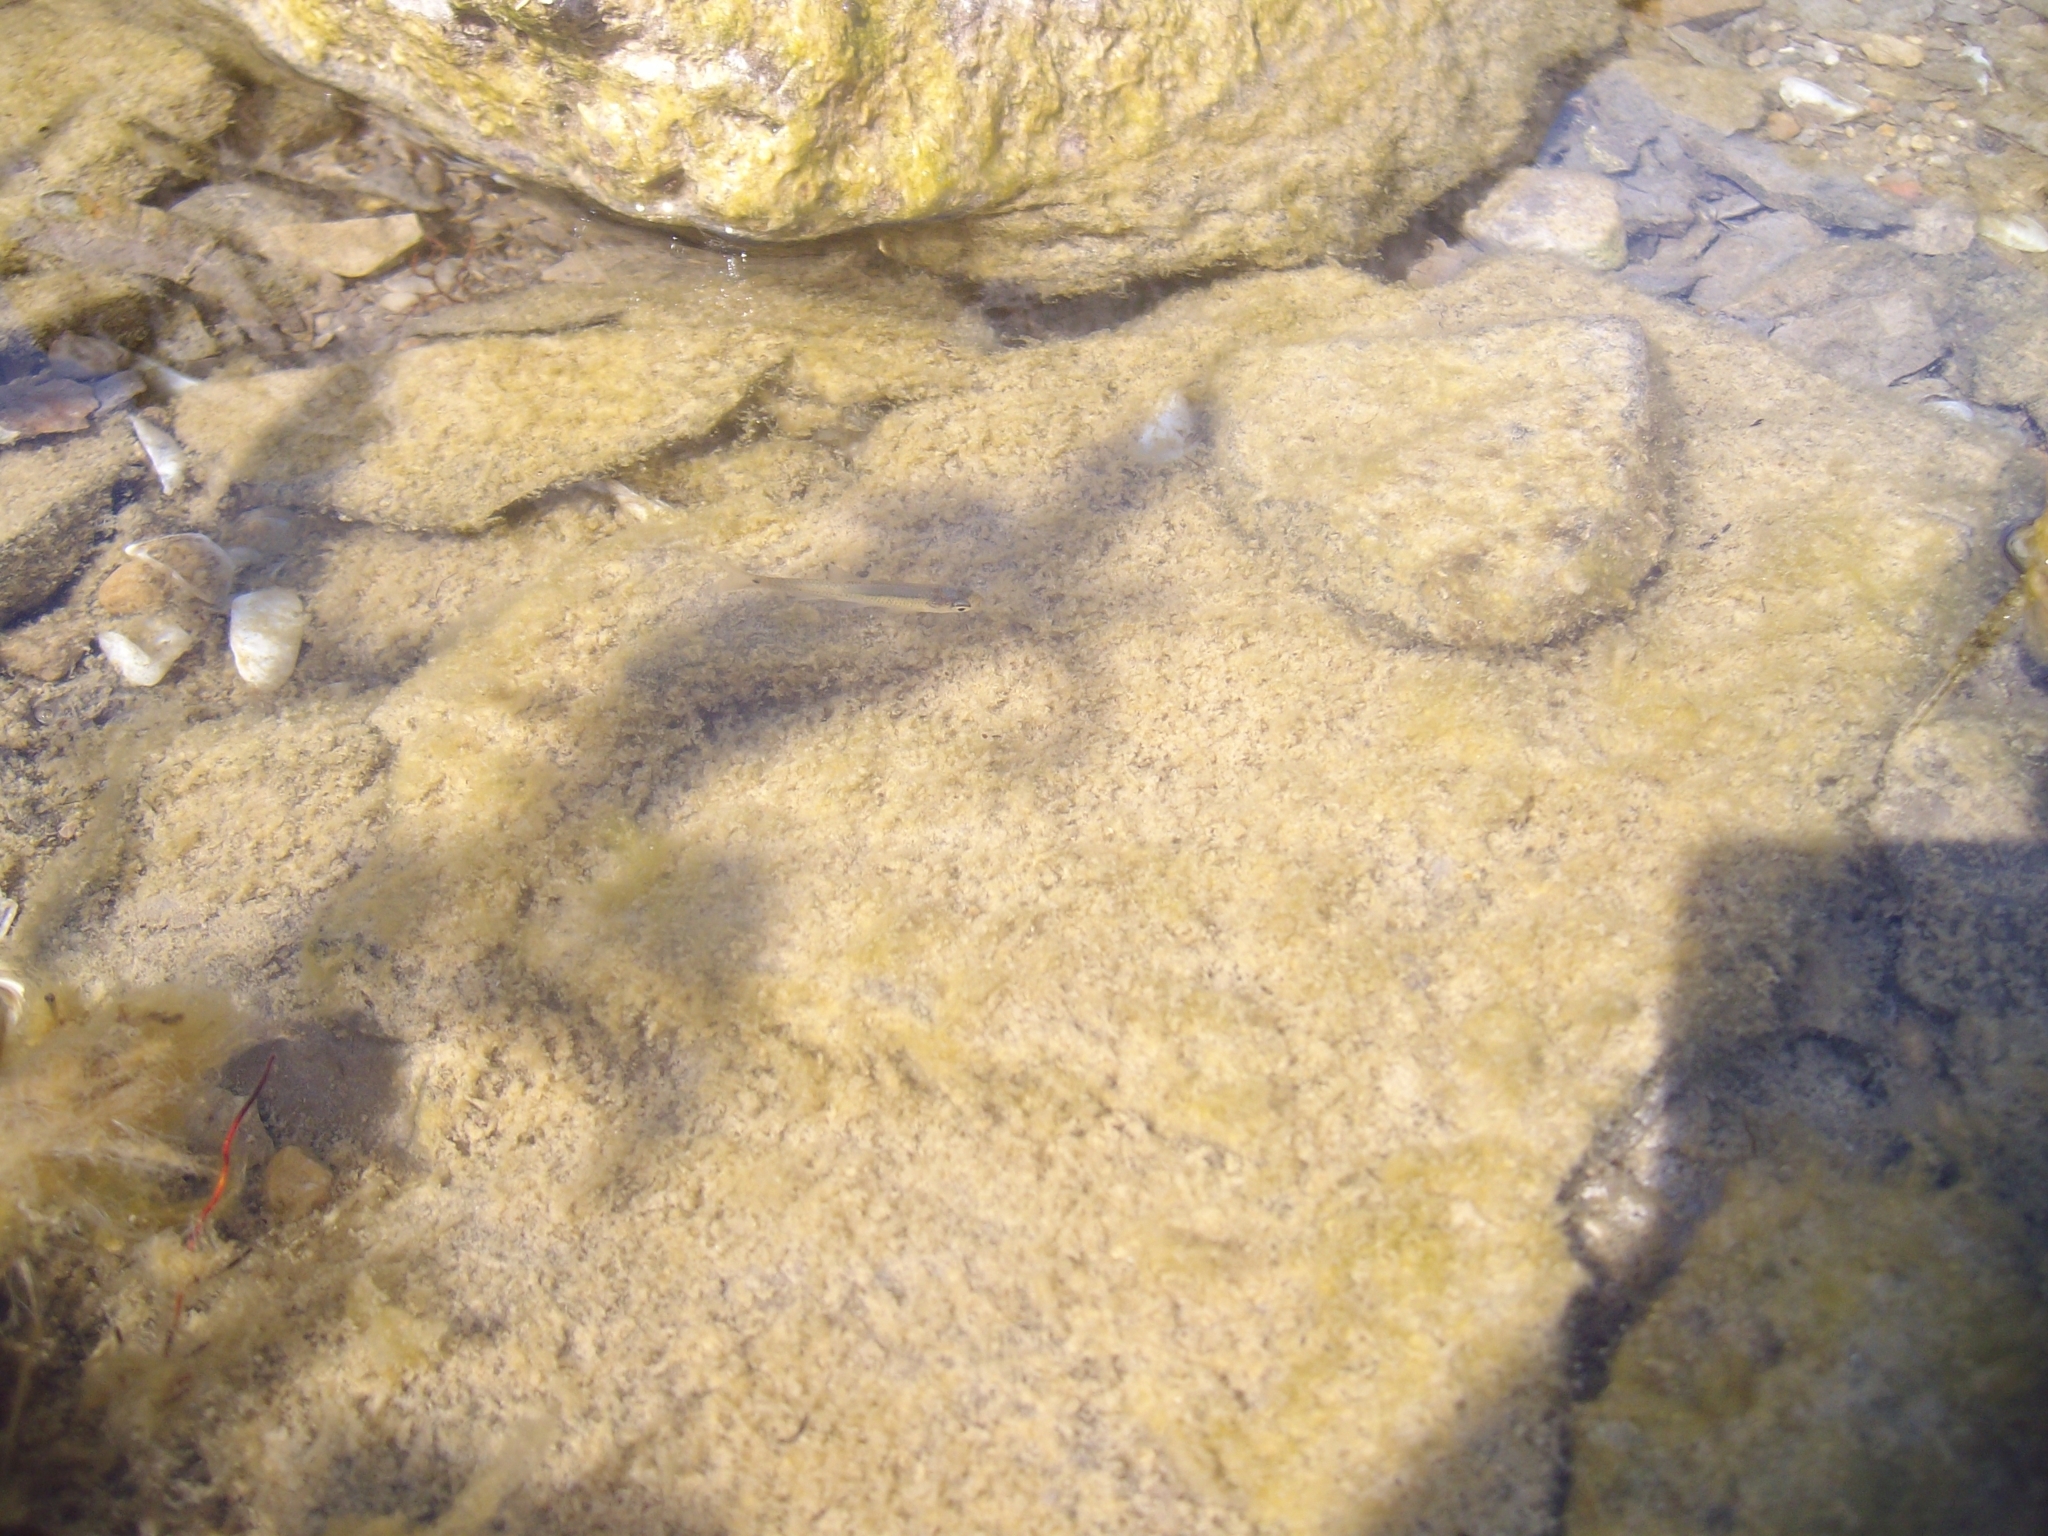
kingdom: Animalia
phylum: Chordata
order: Cypriniformes
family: Cyprinidae
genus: Notropis
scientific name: Notropis
